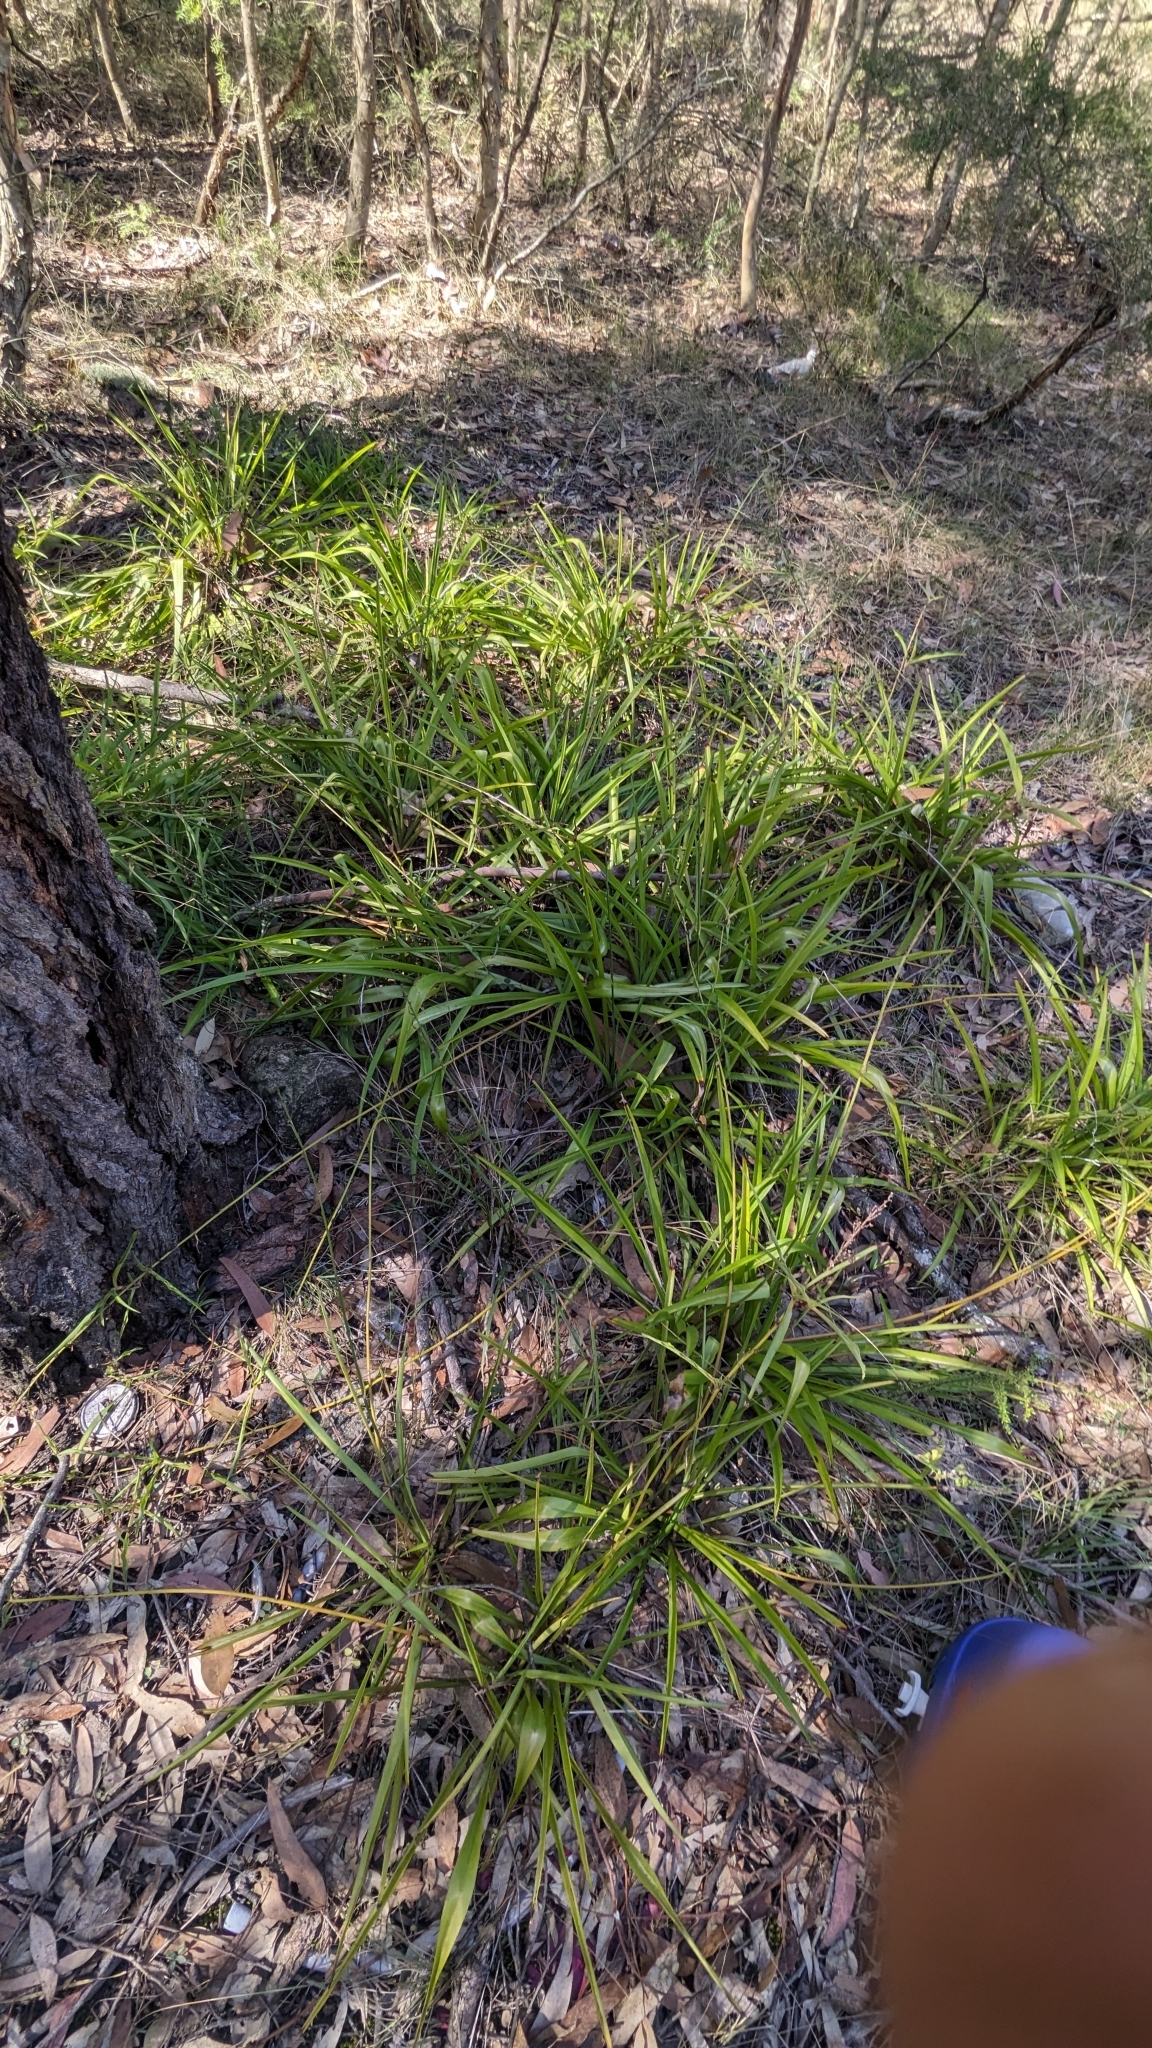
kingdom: Plantae
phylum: Tracheophyta
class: Liliopsida
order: Asparagales
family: Asparagaceae
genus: Chlorophytum
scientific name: Chlorophytum comosum
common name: Spider plant
